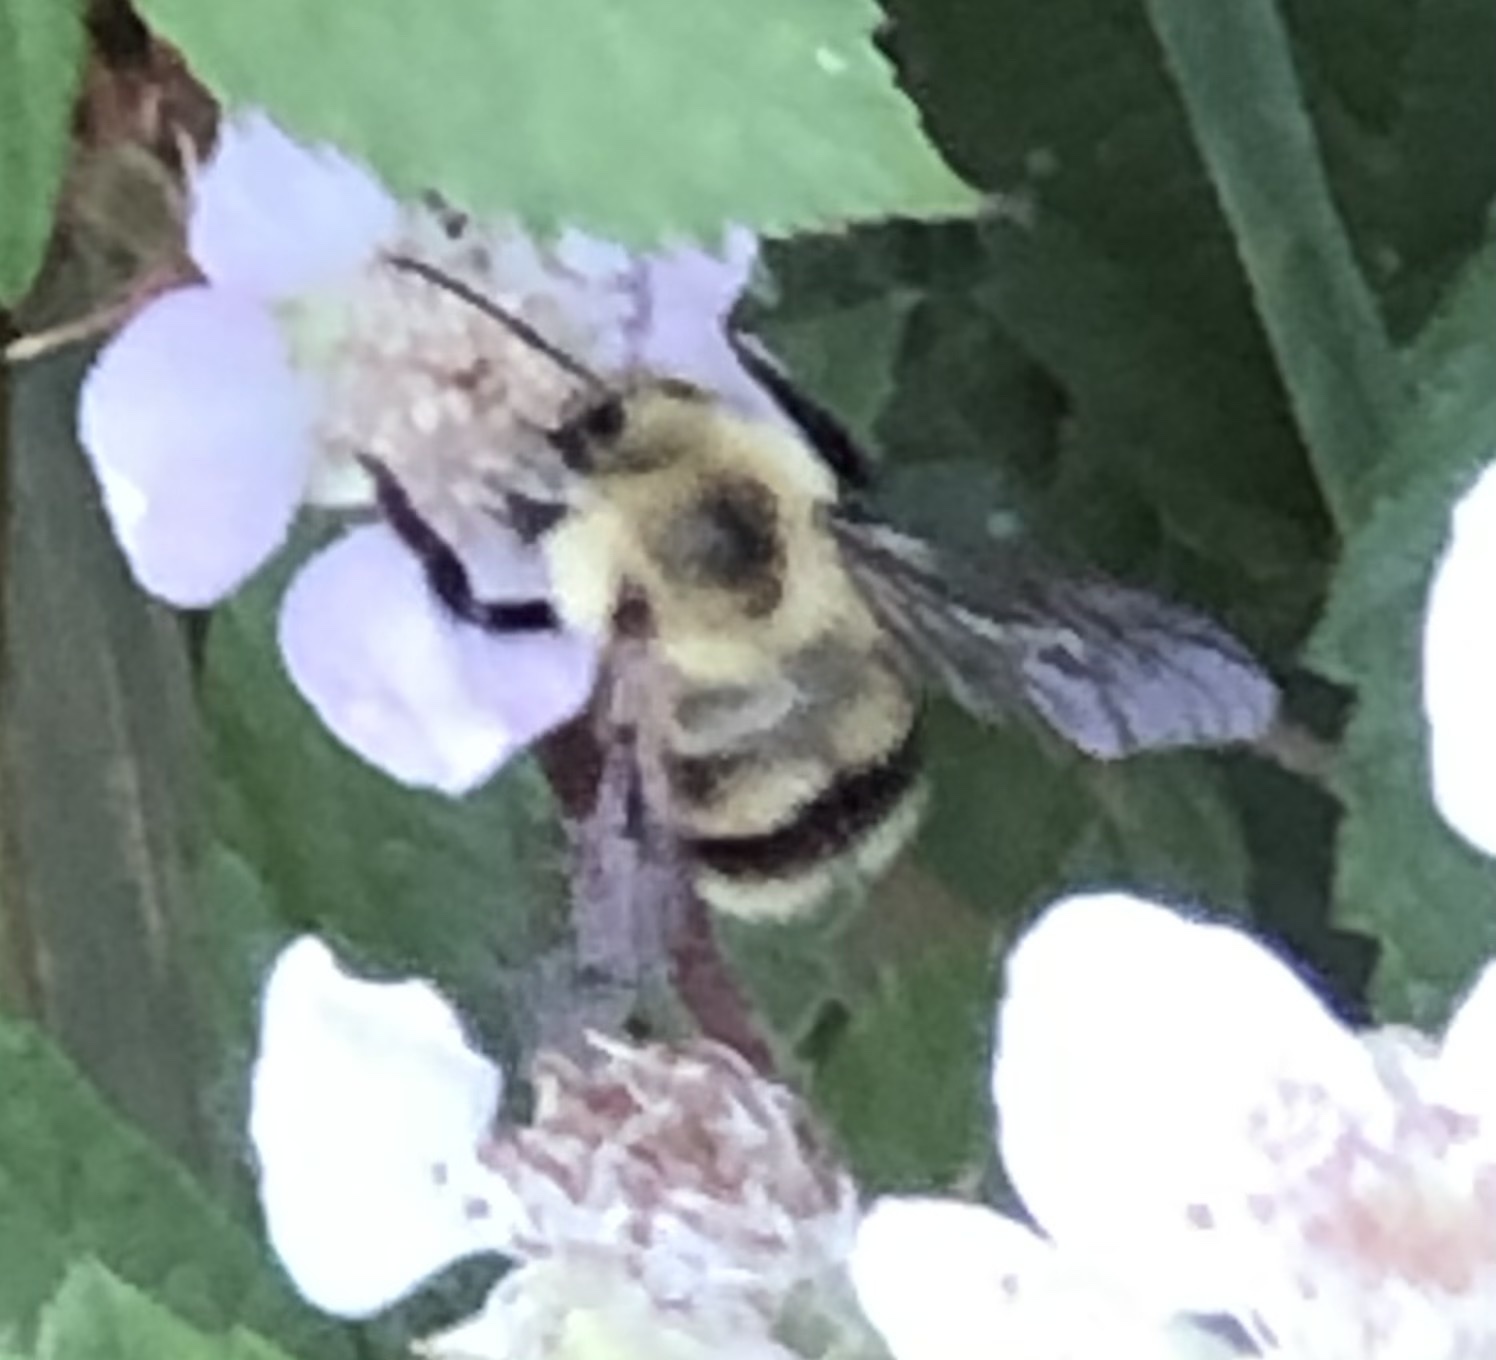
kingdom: Animalia
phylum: Arthropoda
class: Insecta
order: Hymenoptera
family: Apidae
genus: Bombus
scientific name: Bombus bimaculatus
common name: Two-spotted bumble bee
